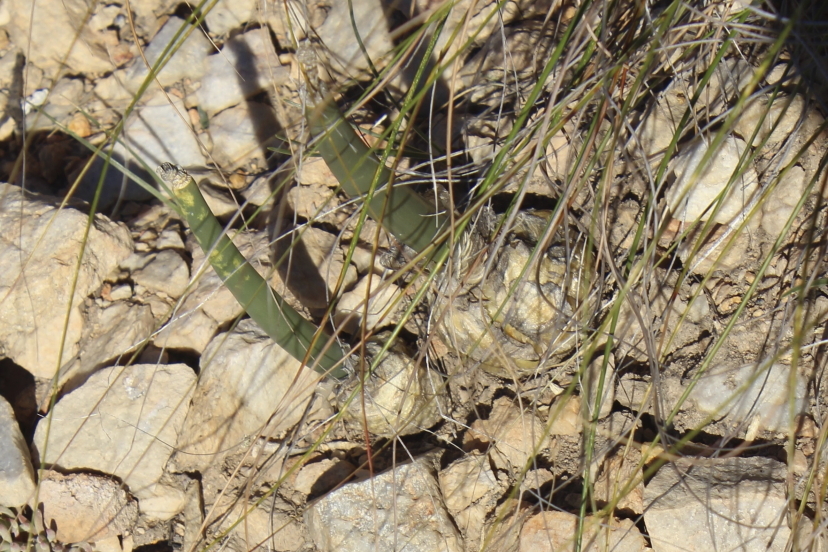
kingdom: Plantae
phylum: Tracheophyta
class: Liliopsida
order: Asparagales
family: Asparagaceae
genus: Drimia
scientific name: Drimia anomala
